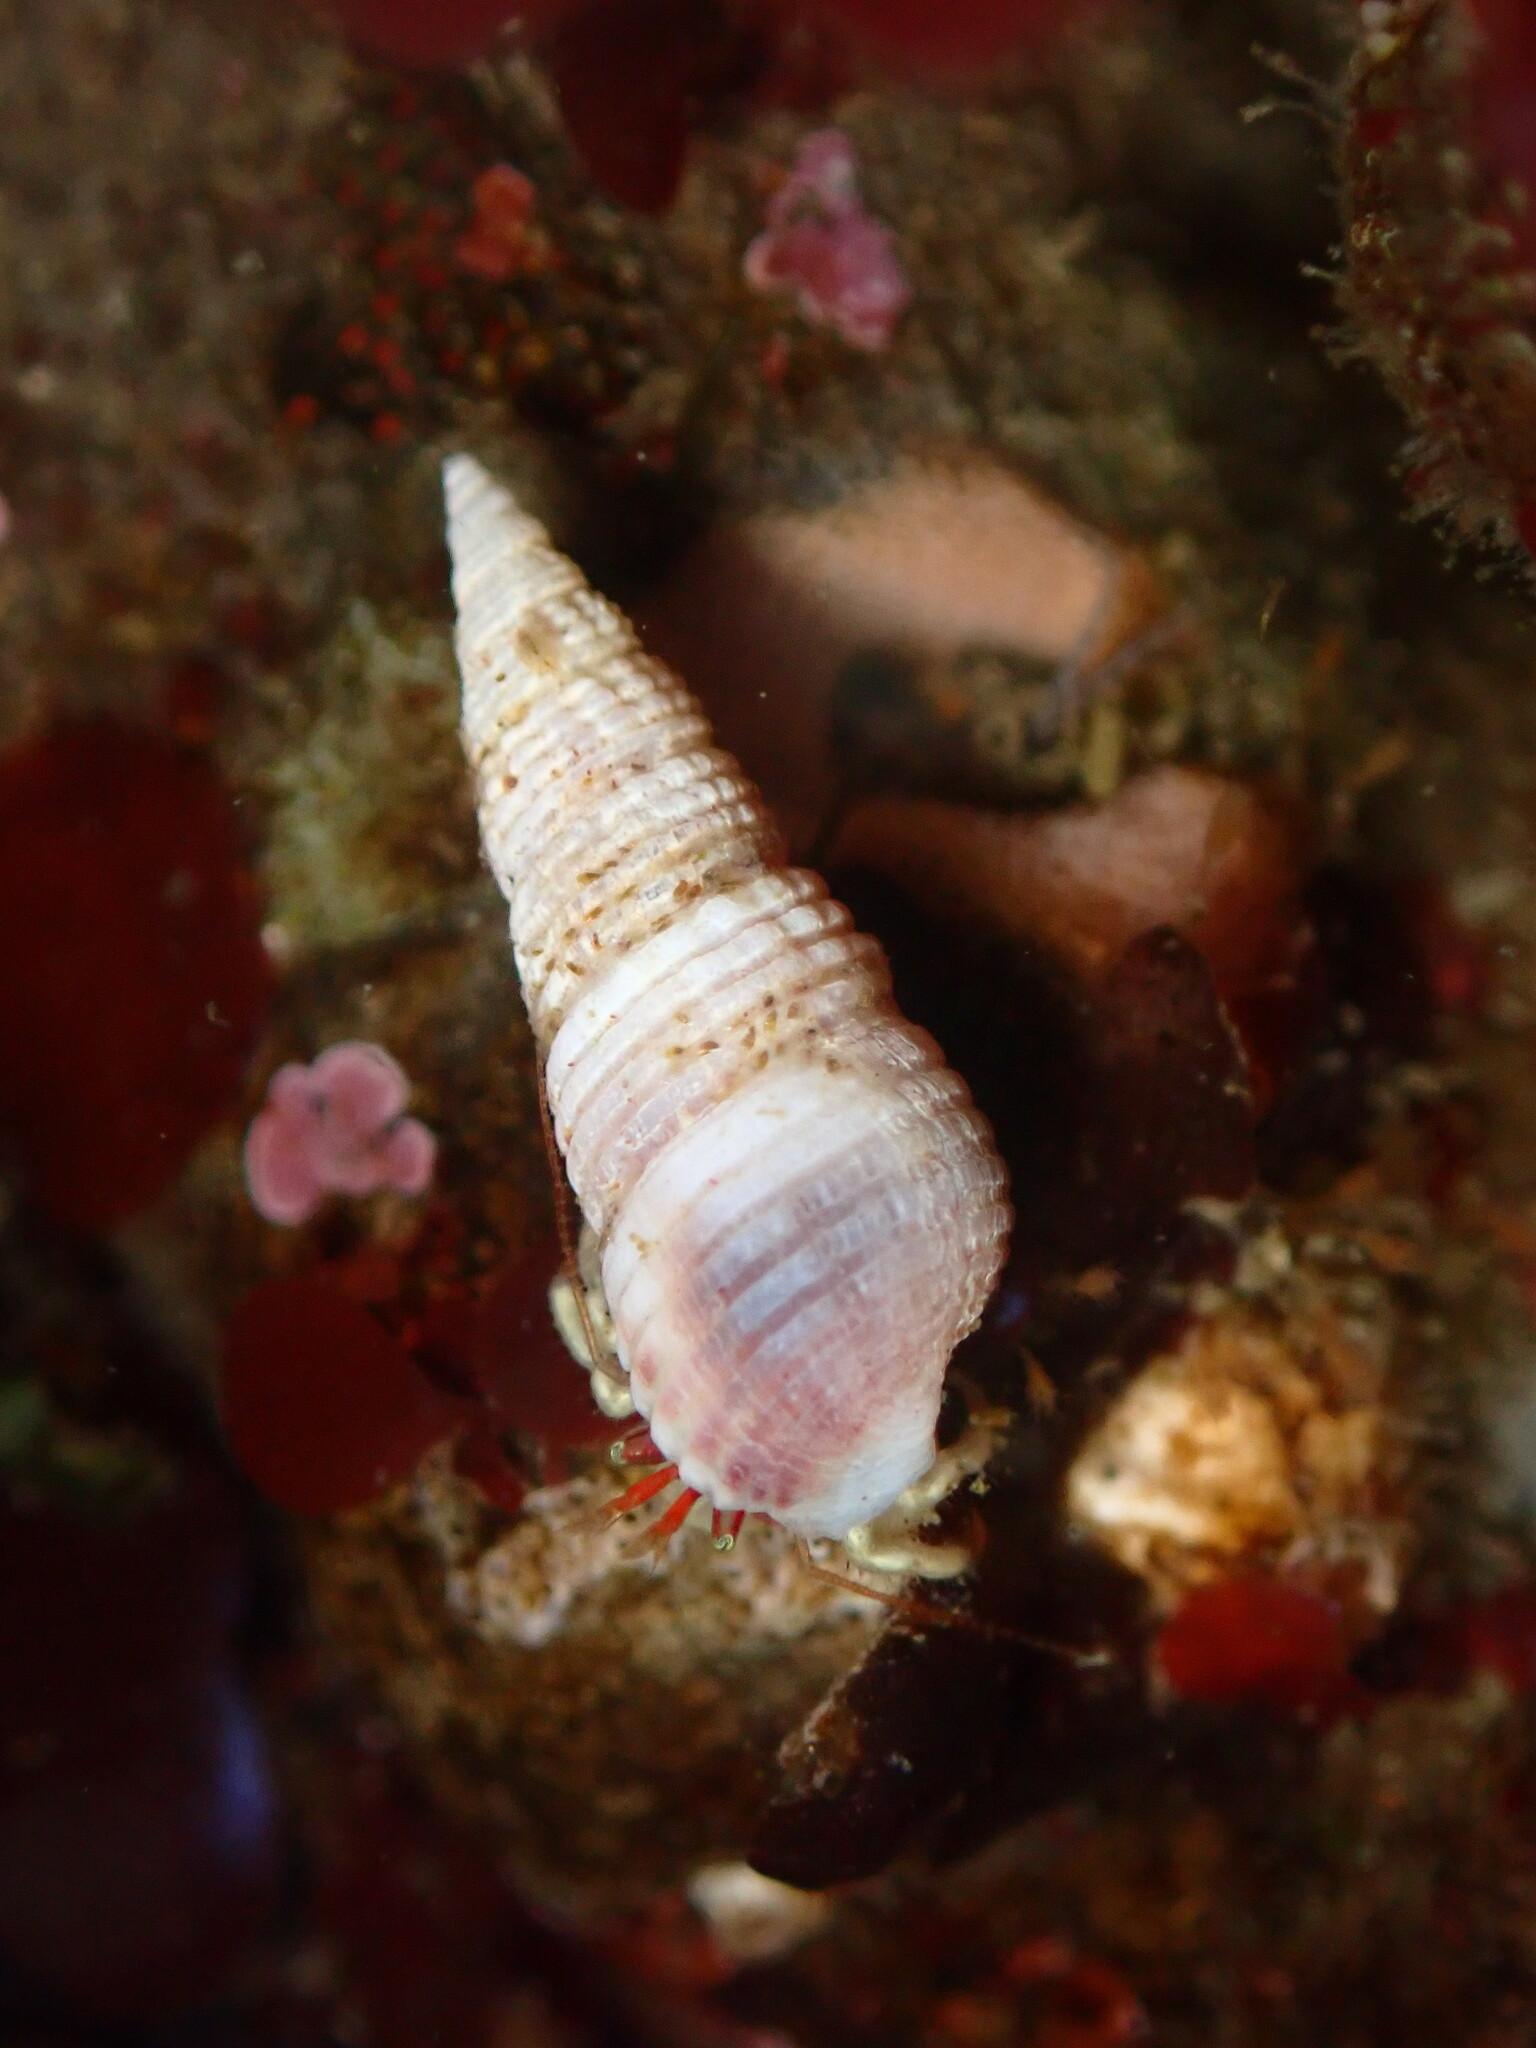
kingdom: Animalia
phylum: Mollusca
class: Gastropoda
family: Cerithiidae
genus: Neostylidium
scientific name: Neostylidium eschrichtii
